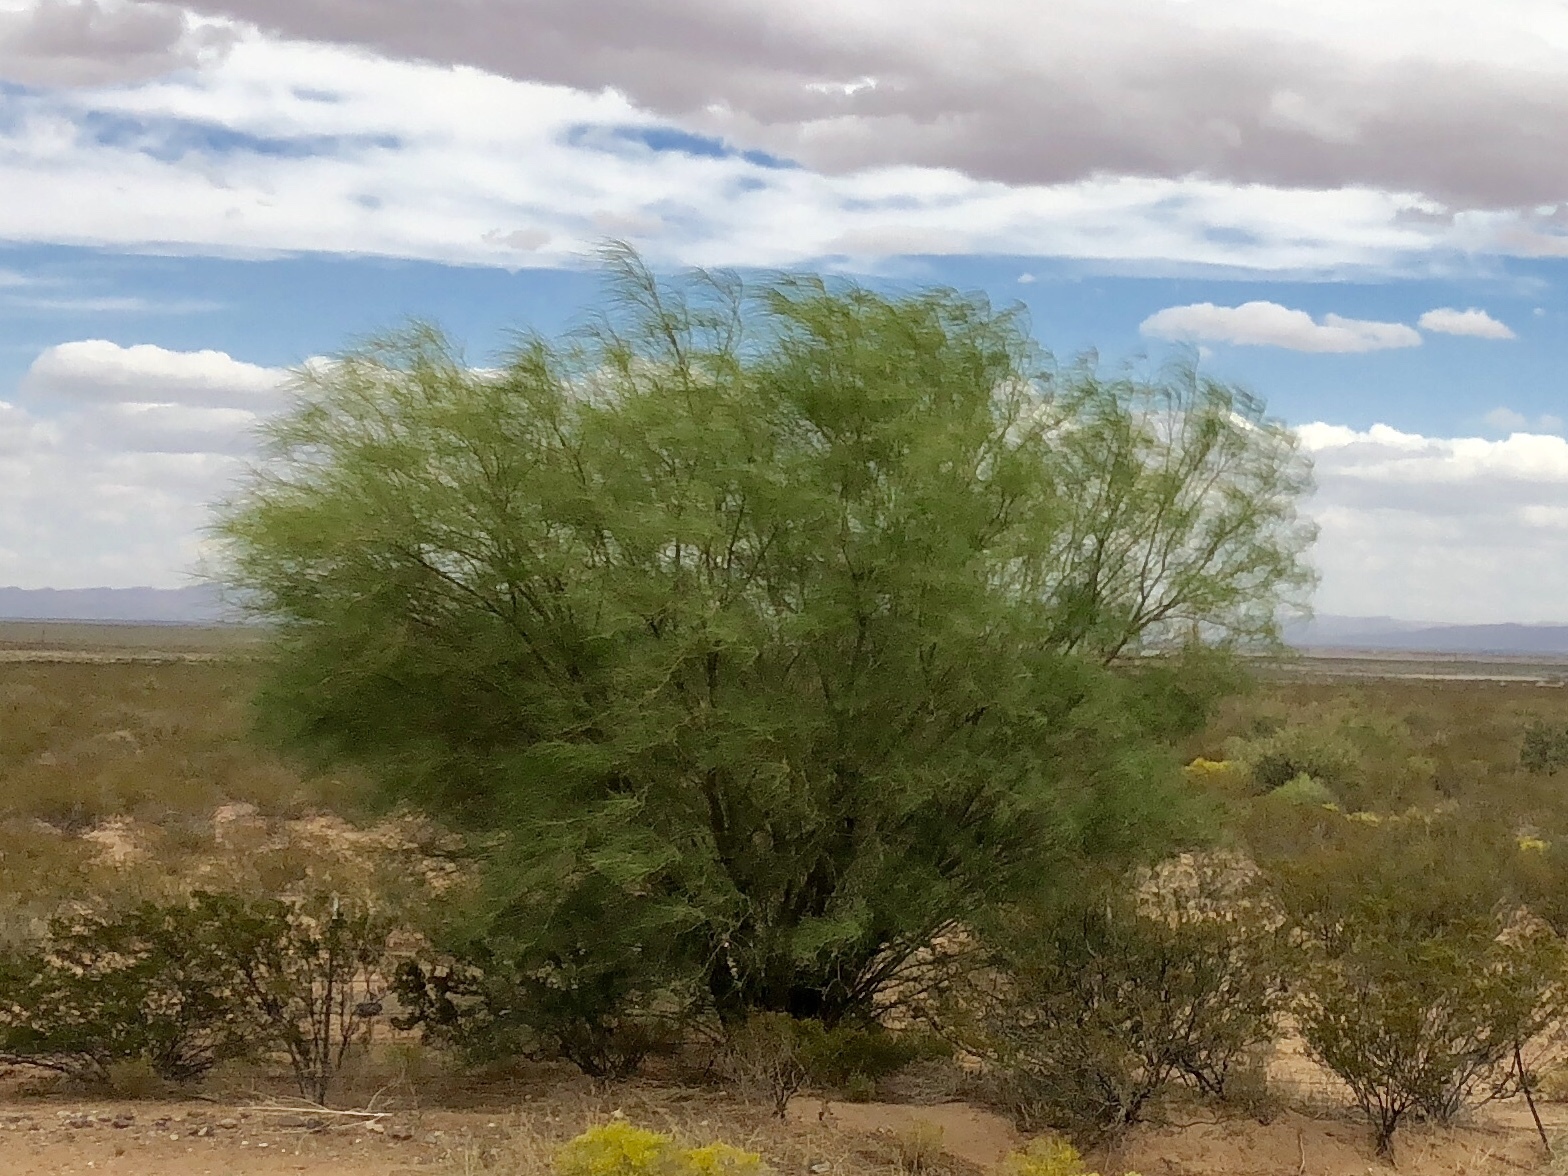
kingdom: Plantae
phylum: Tracheophyta
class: Magnoliopsida
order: Fabales
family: Fabaceae
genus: Parkinsonia
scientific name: Parkinsonia aculeata
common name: Jerusalem thorn
